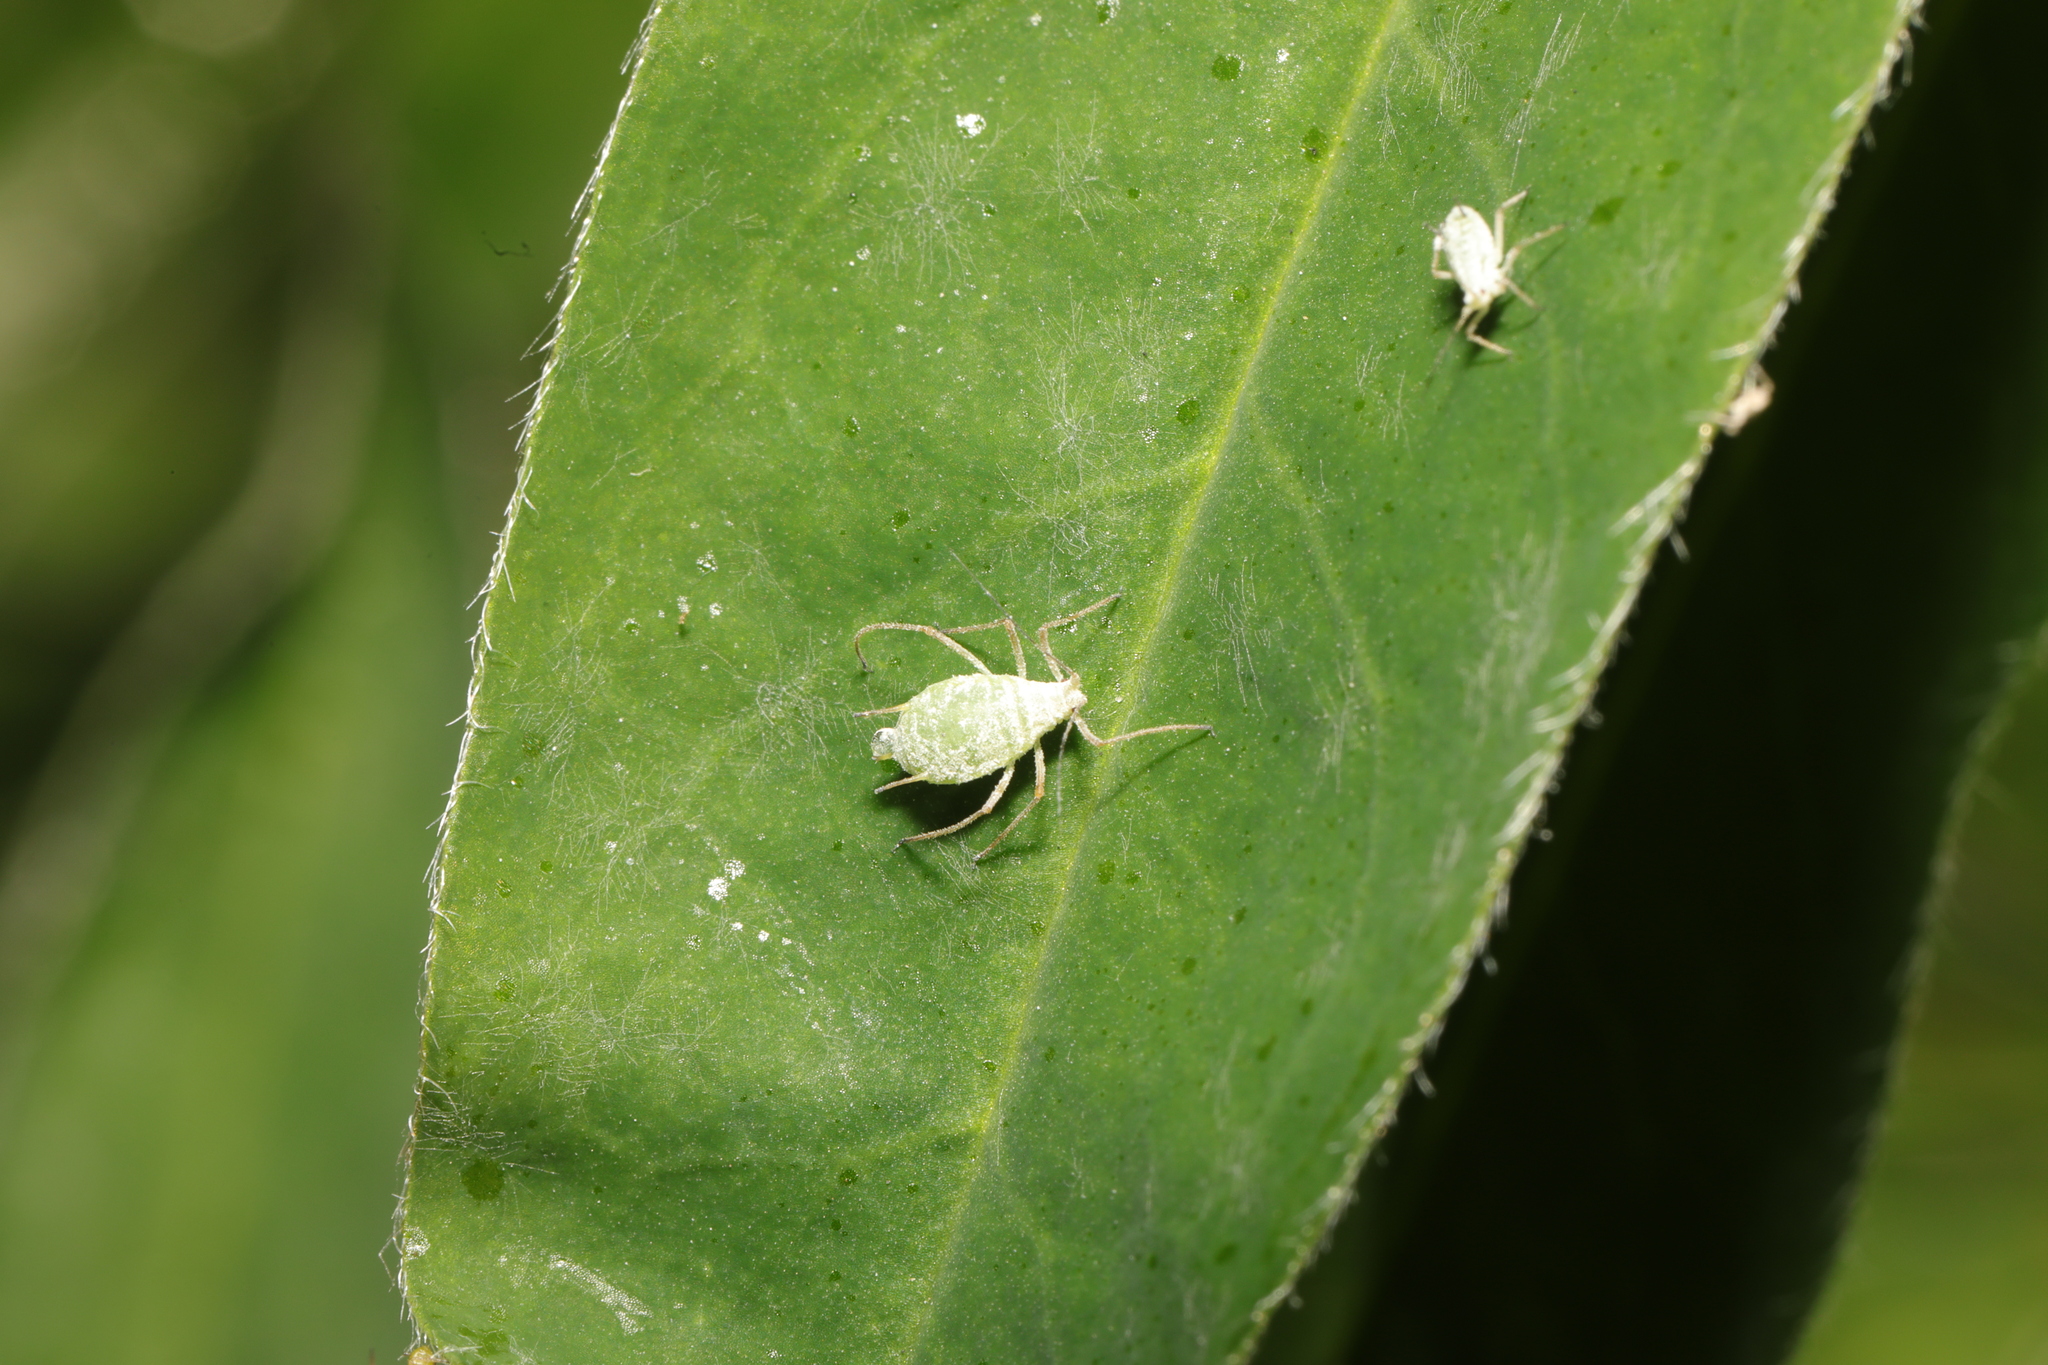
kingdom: Animalia
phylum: Arthropoda
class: Insecta
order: Hemiptera
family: Aphididae
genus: Macrosiphum
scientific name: Macrosiphum albifrons
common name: Lupine aphid
